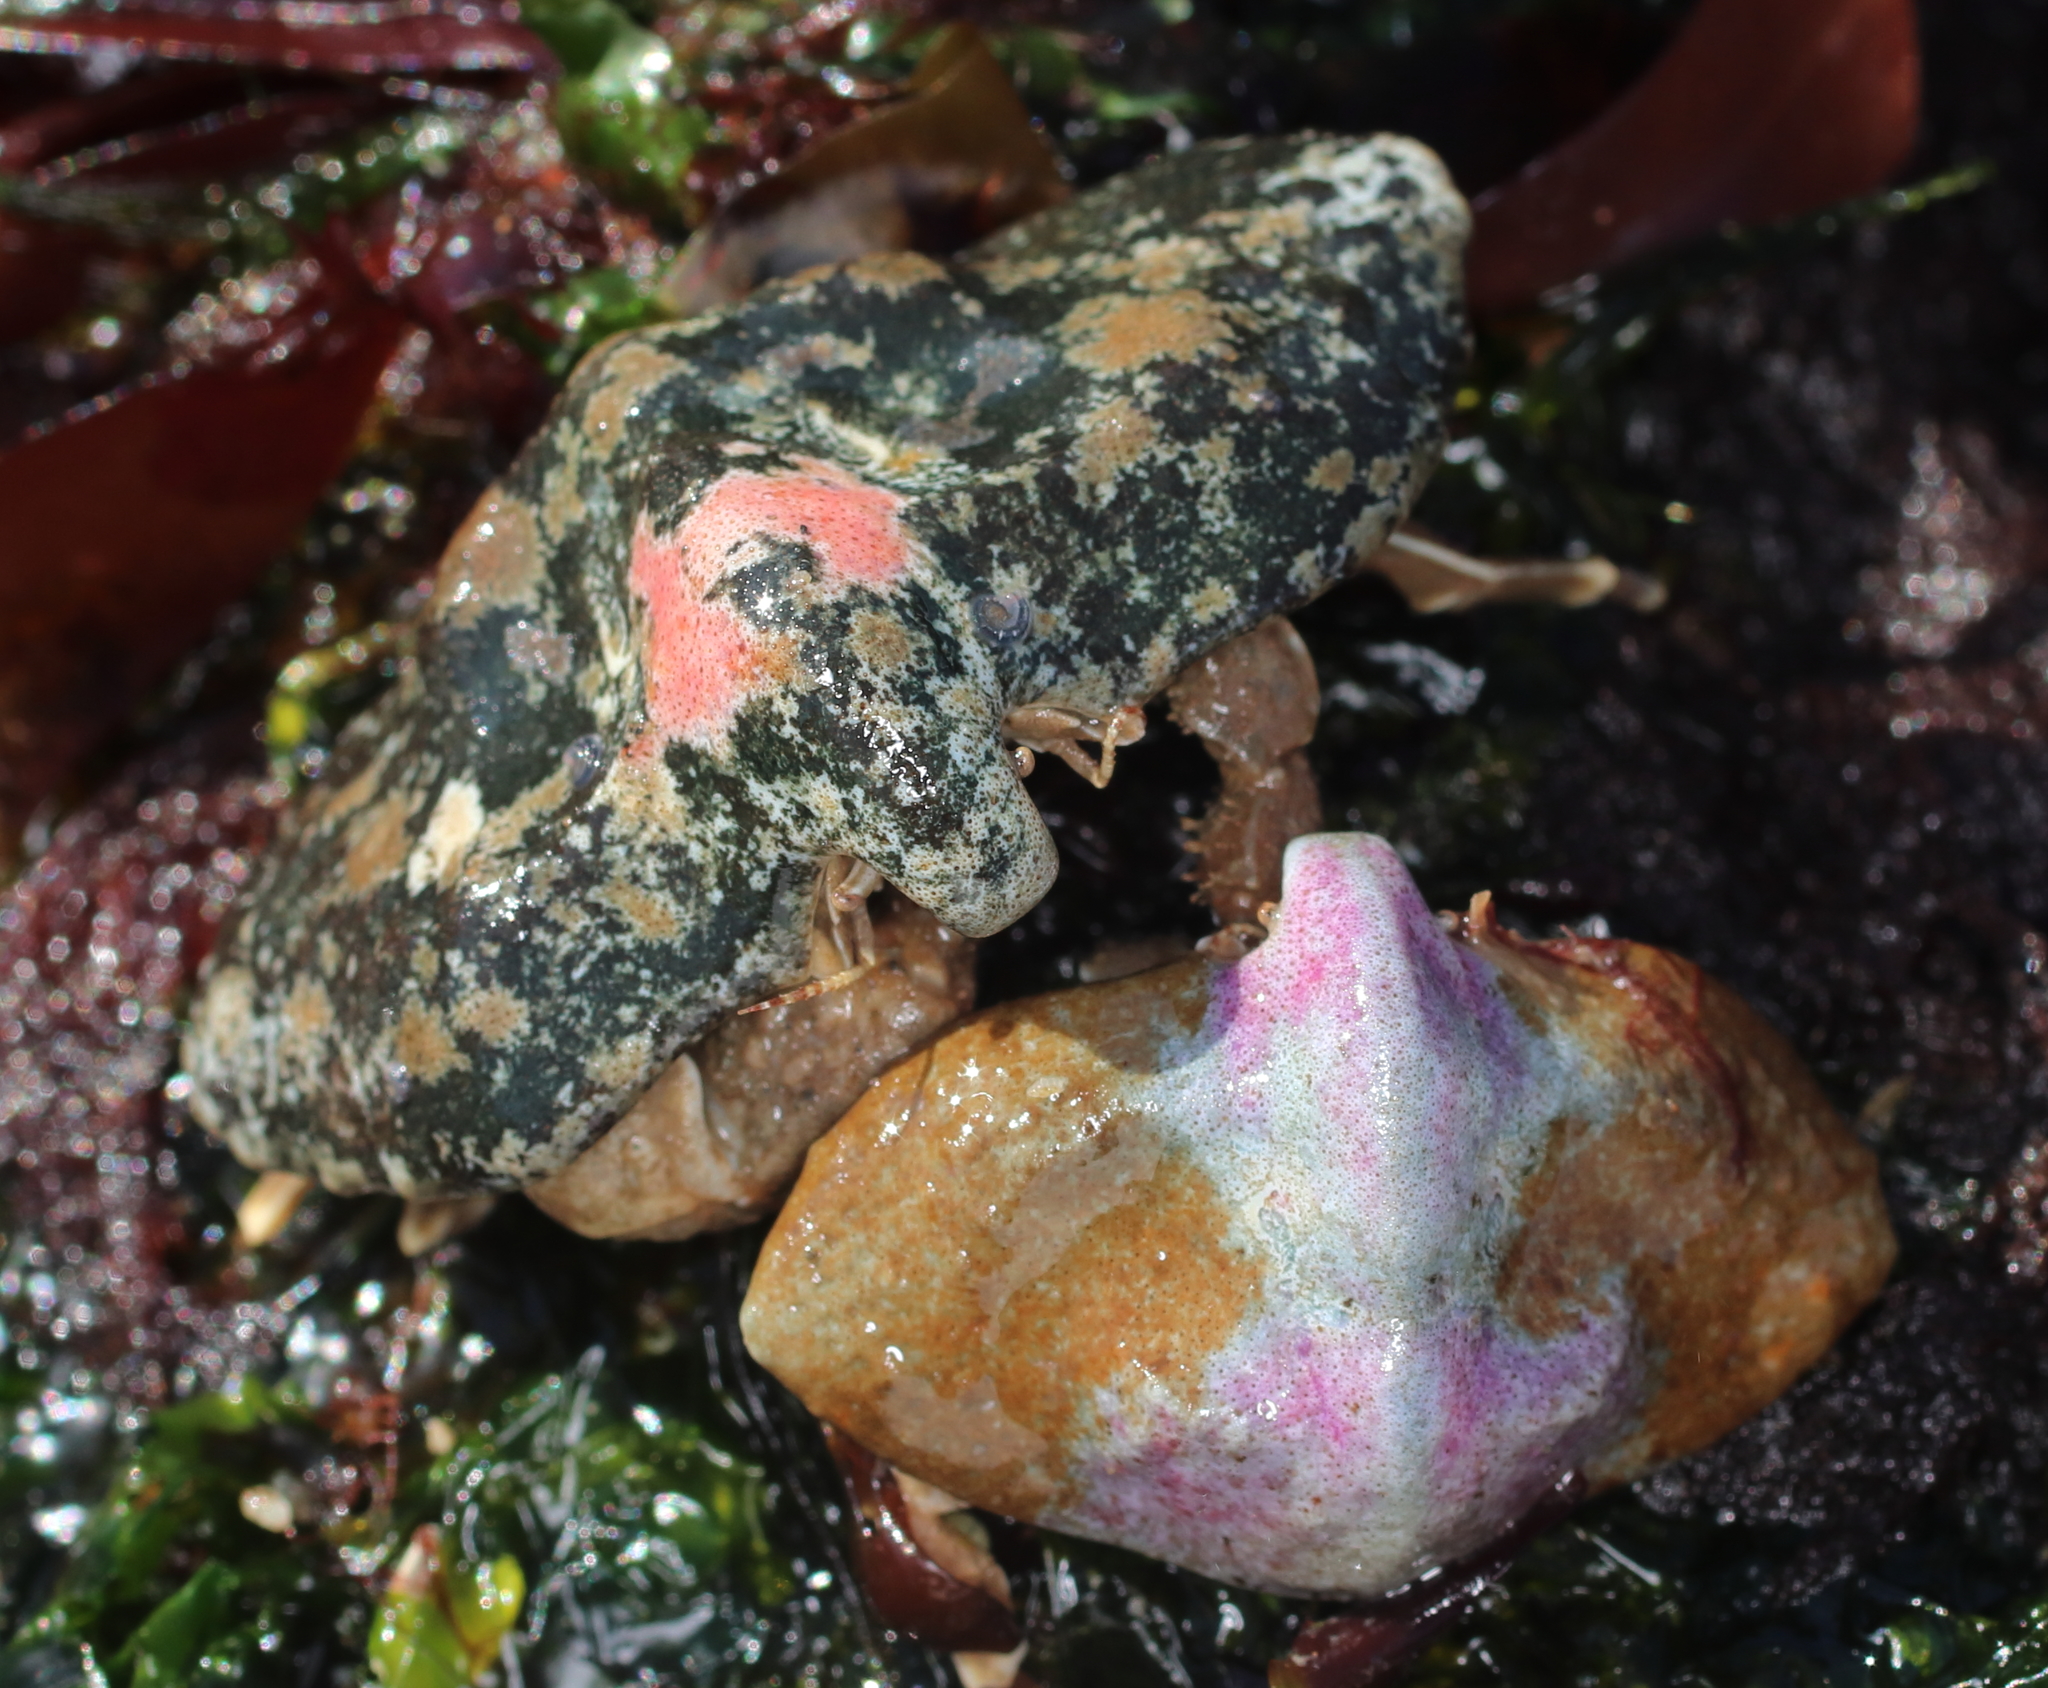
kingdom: Animalia
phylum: Arthropoda
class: Malacostraca
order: Decapoda
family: Lithodidae
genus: Cryptolithodes
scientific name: Cryptolithodes typicus
